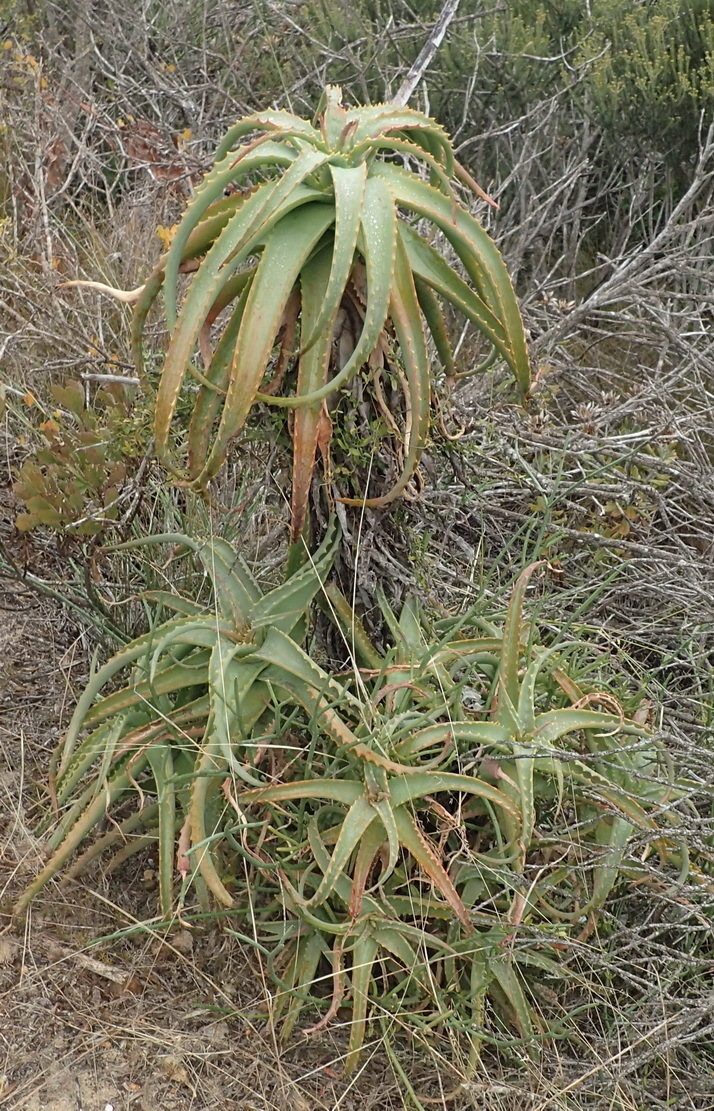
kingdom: Plantae
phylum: Tracheophyta
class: Liliopsida
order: Asparagales
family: Asphodelaceae
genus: Aloe
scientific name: Aloe arborescens
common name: Candelabra aloe
